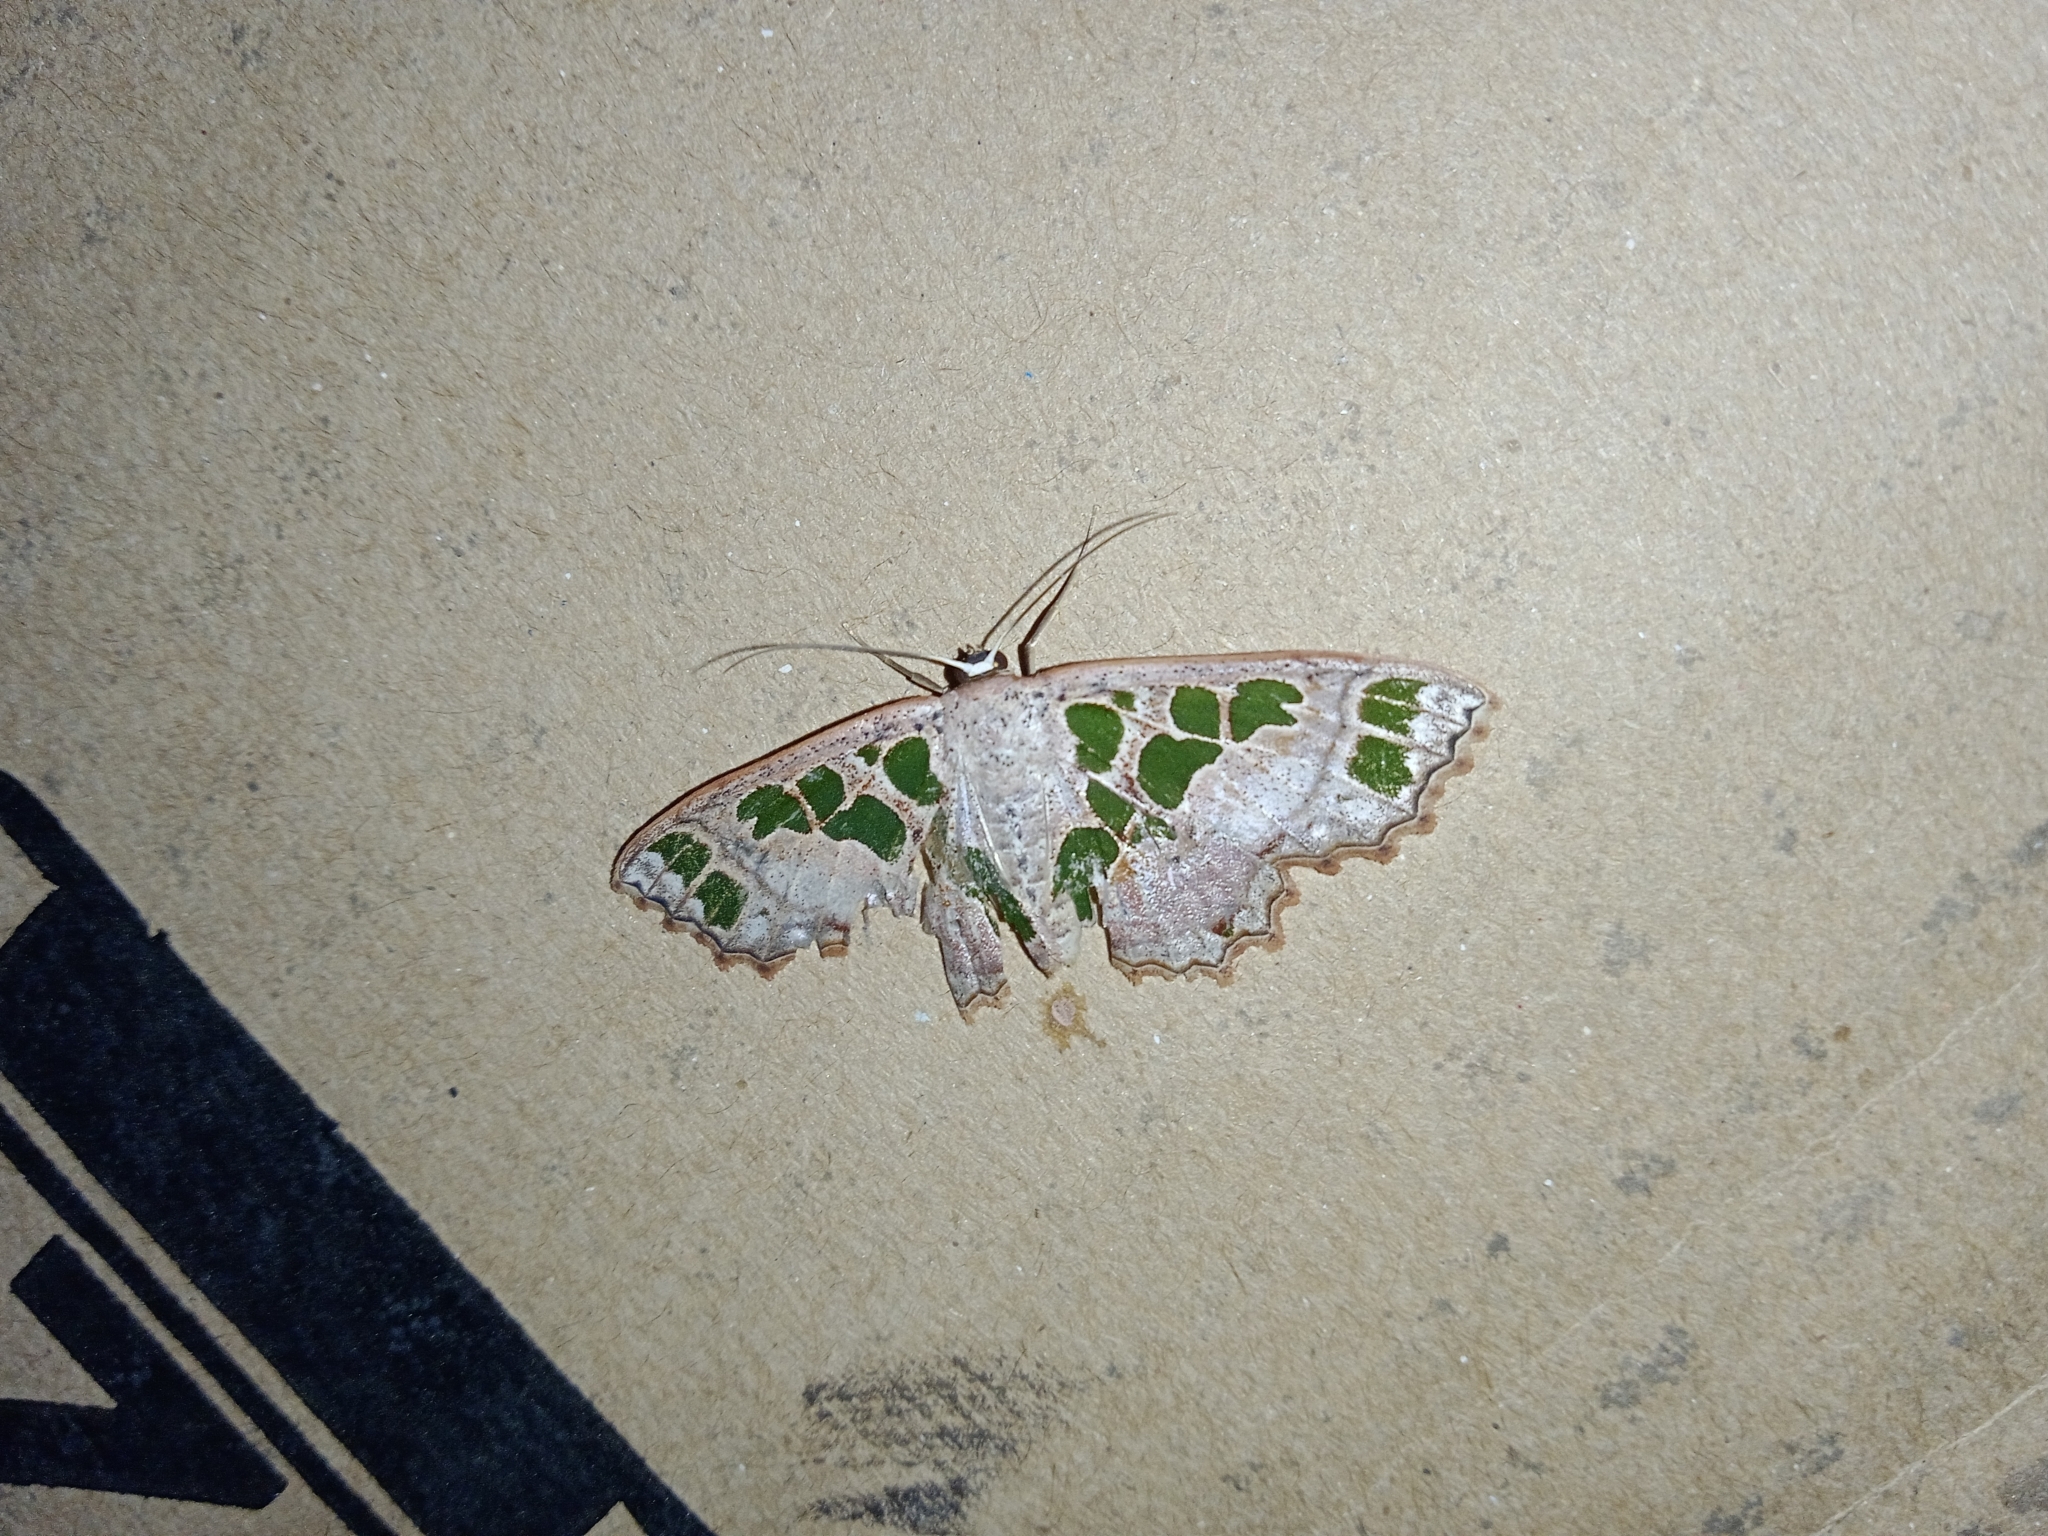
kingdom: Animalia
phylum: Arthropoda
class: Insecta
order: Lepidoptera
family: Geometridae
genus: Scopula
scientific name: Scopula divisaria
